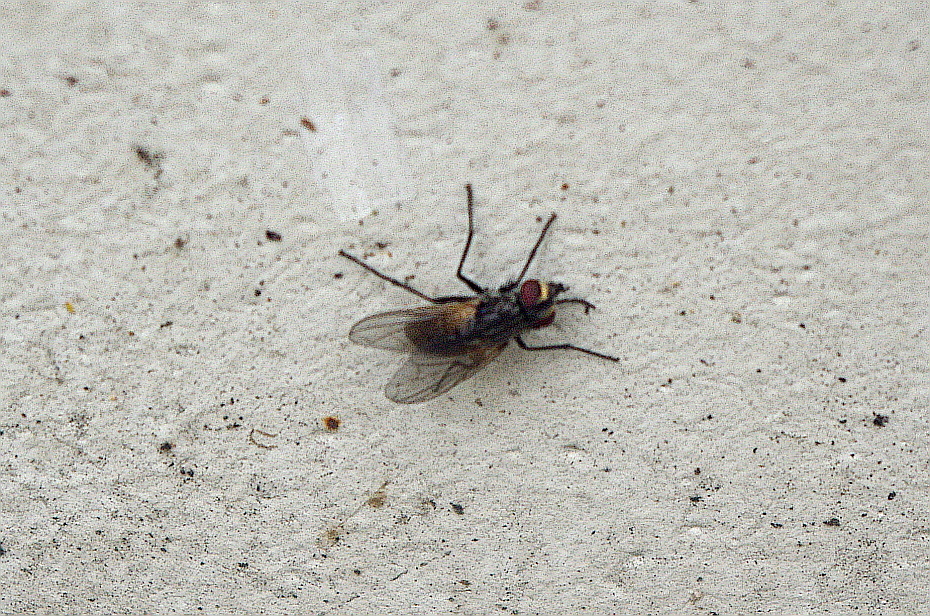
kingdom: Animalia
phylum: Arthropoda
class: Insecta
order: Diptera
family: Muscidae
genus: Musca
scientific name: Musca domestica
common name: House fly
